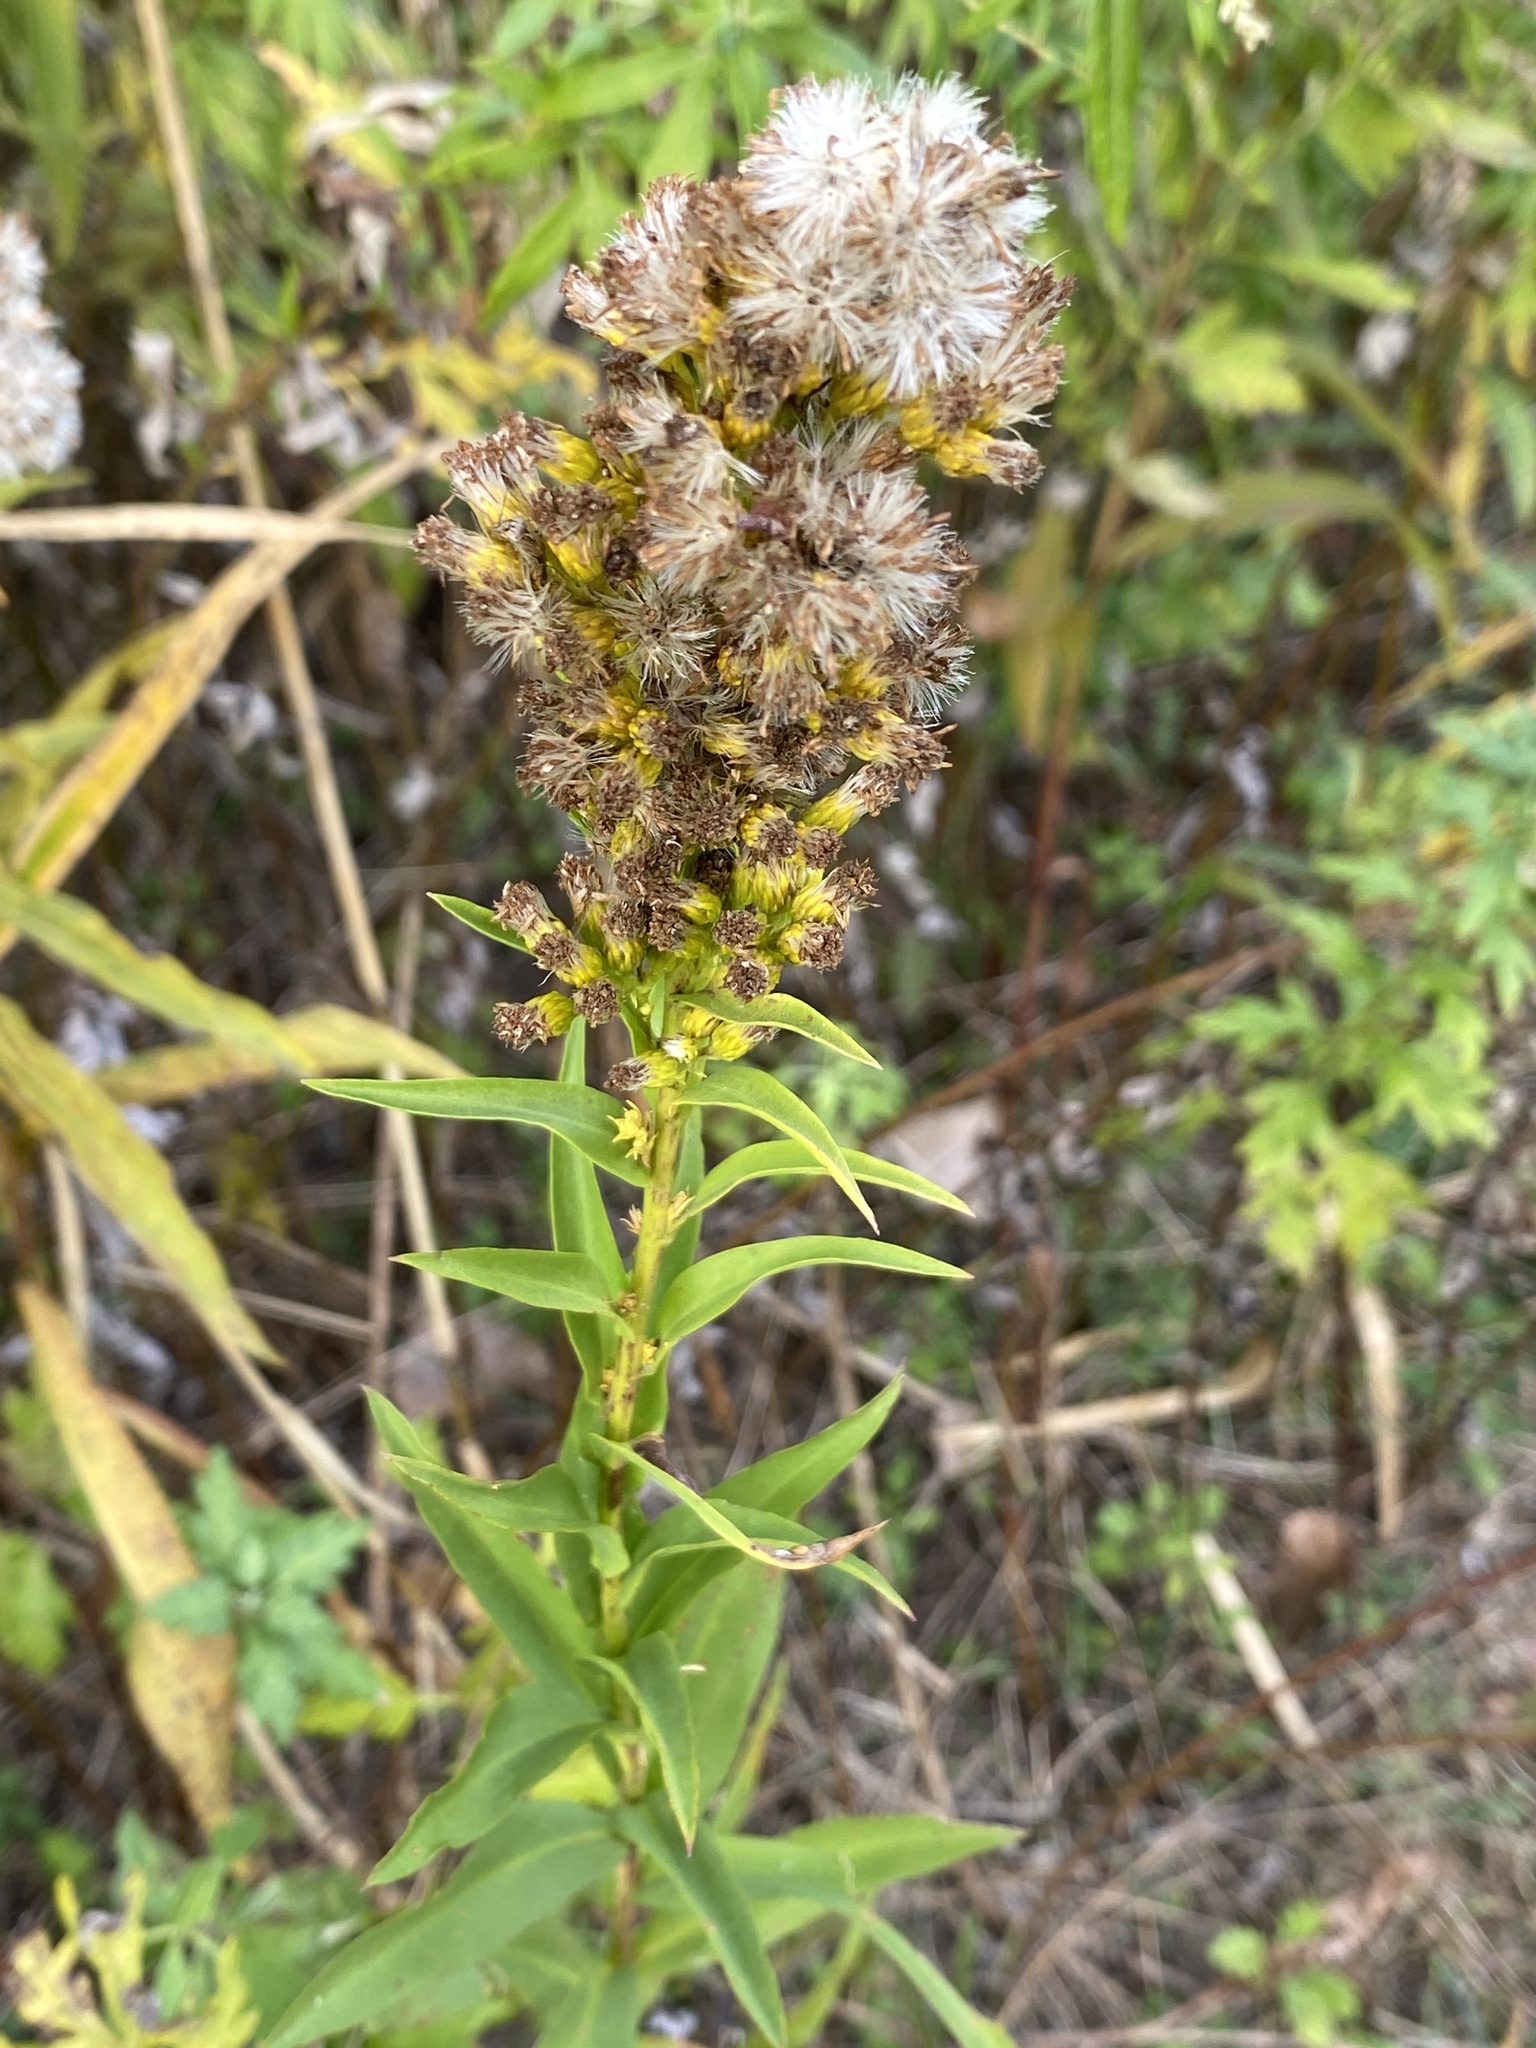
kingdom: Plantae
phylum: Tracheophyta
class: Magnoliopsida
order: Asterales
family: Asteraceae
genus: Solidago
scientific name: Solidago sempervirens
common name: Salt-marsh goldenrod
